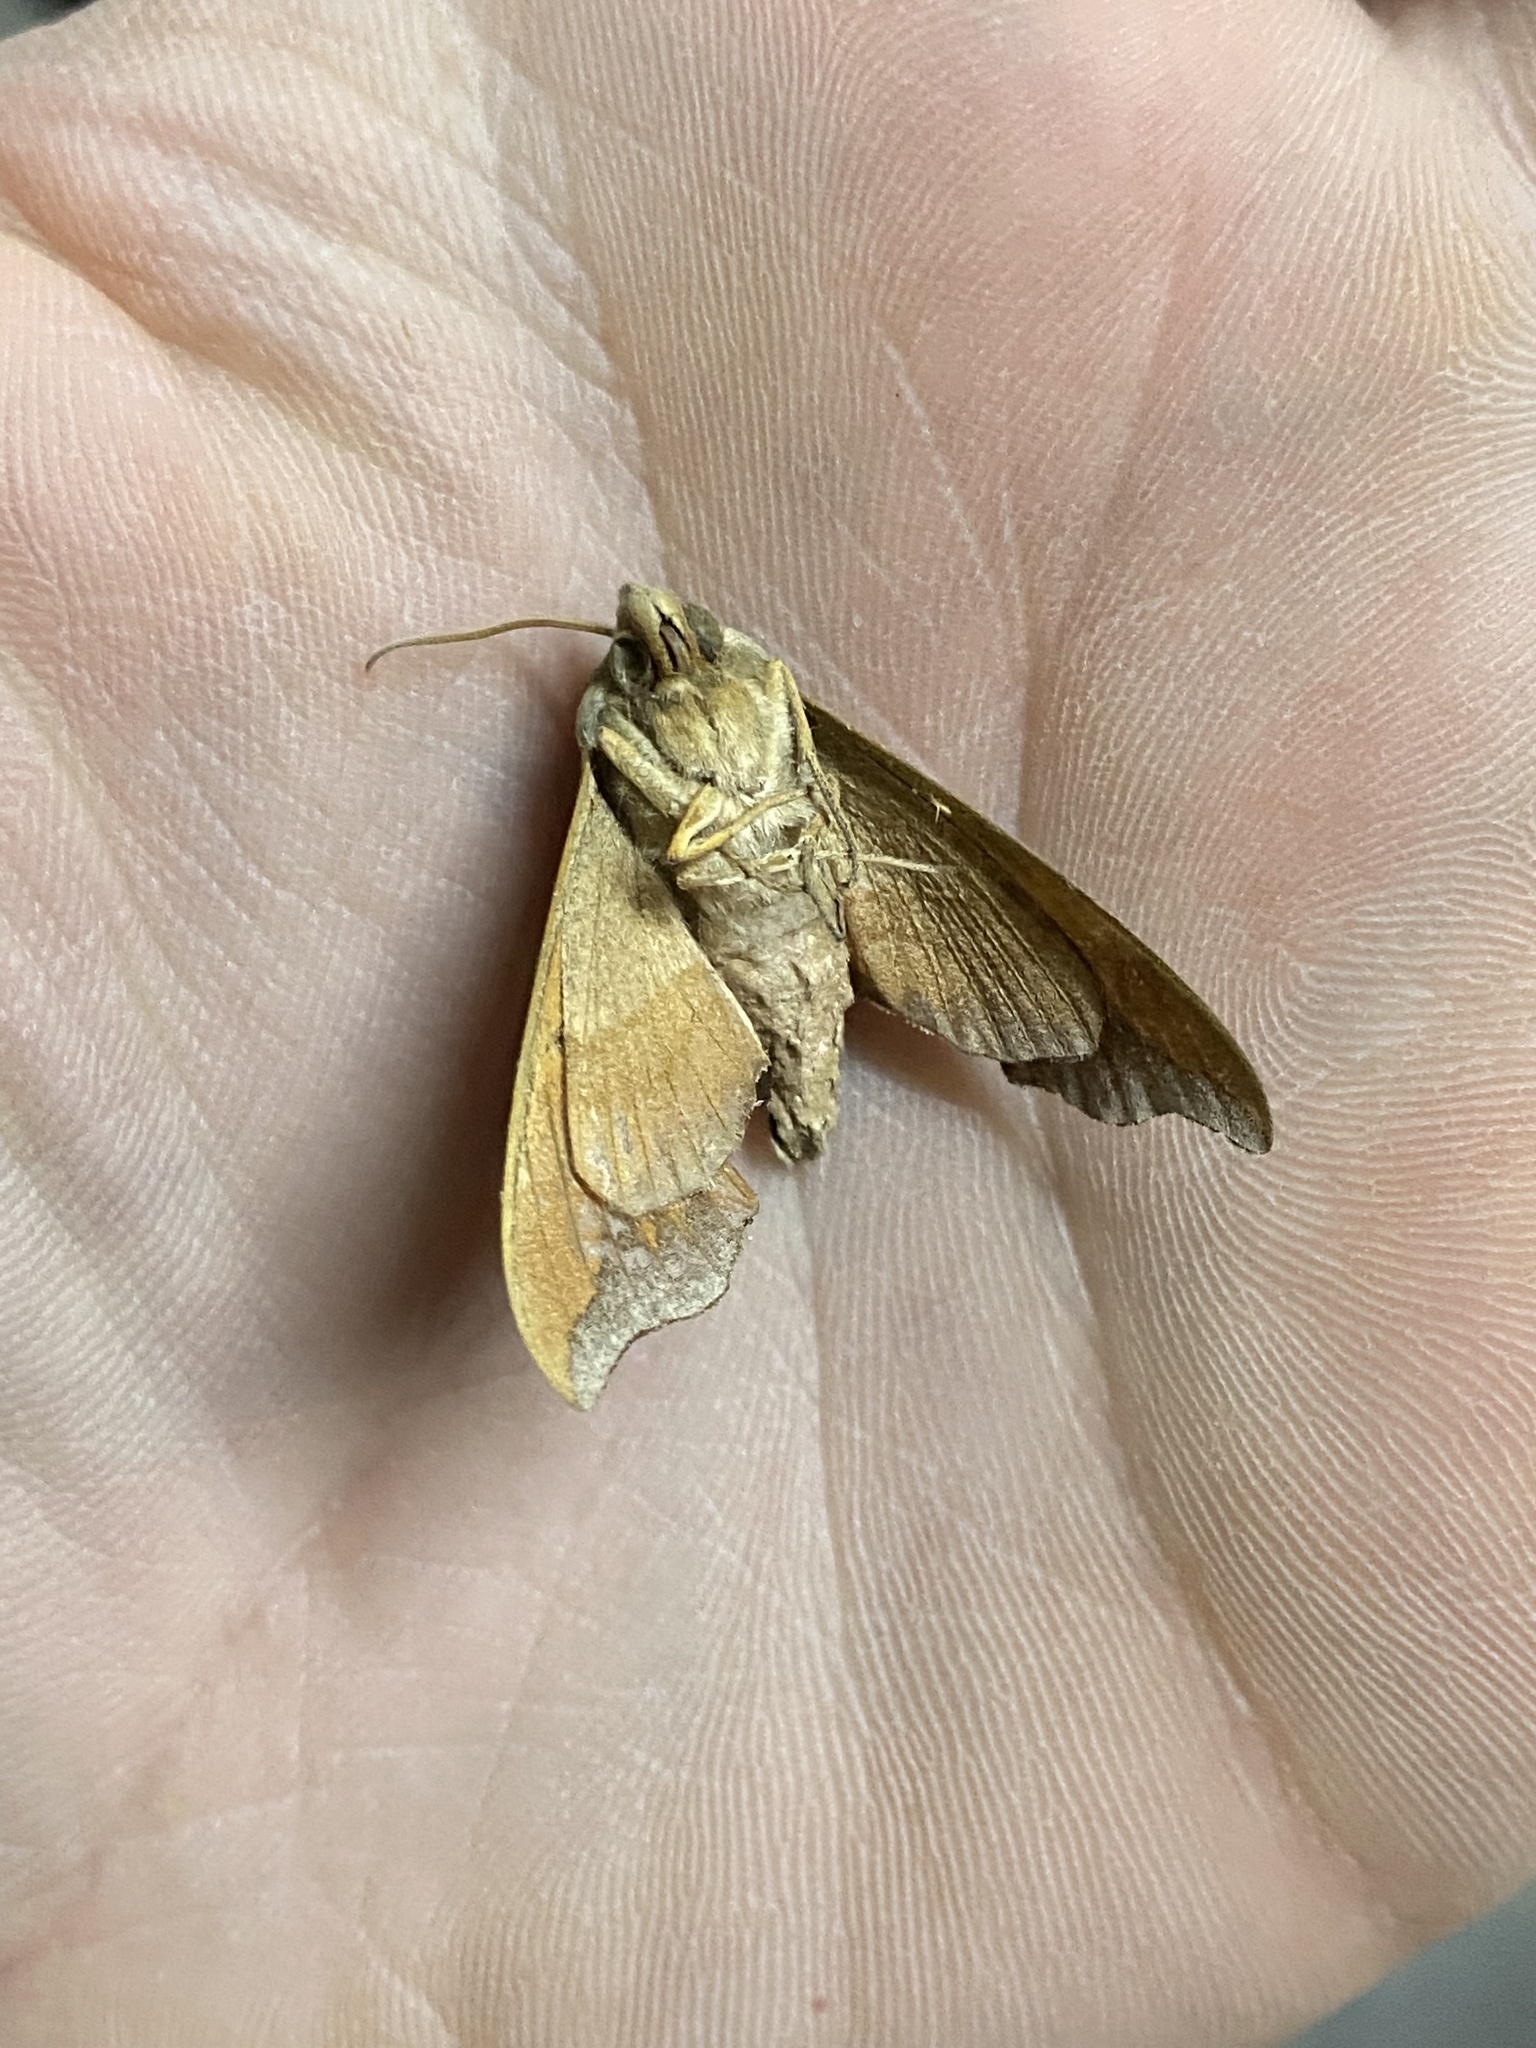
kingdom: Animalia
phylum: Arthropoda
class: Insecta
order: Lepidoptera
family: Sphingidae
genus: Darapsa
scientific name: Darapsa myron
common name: Hog sphinx
